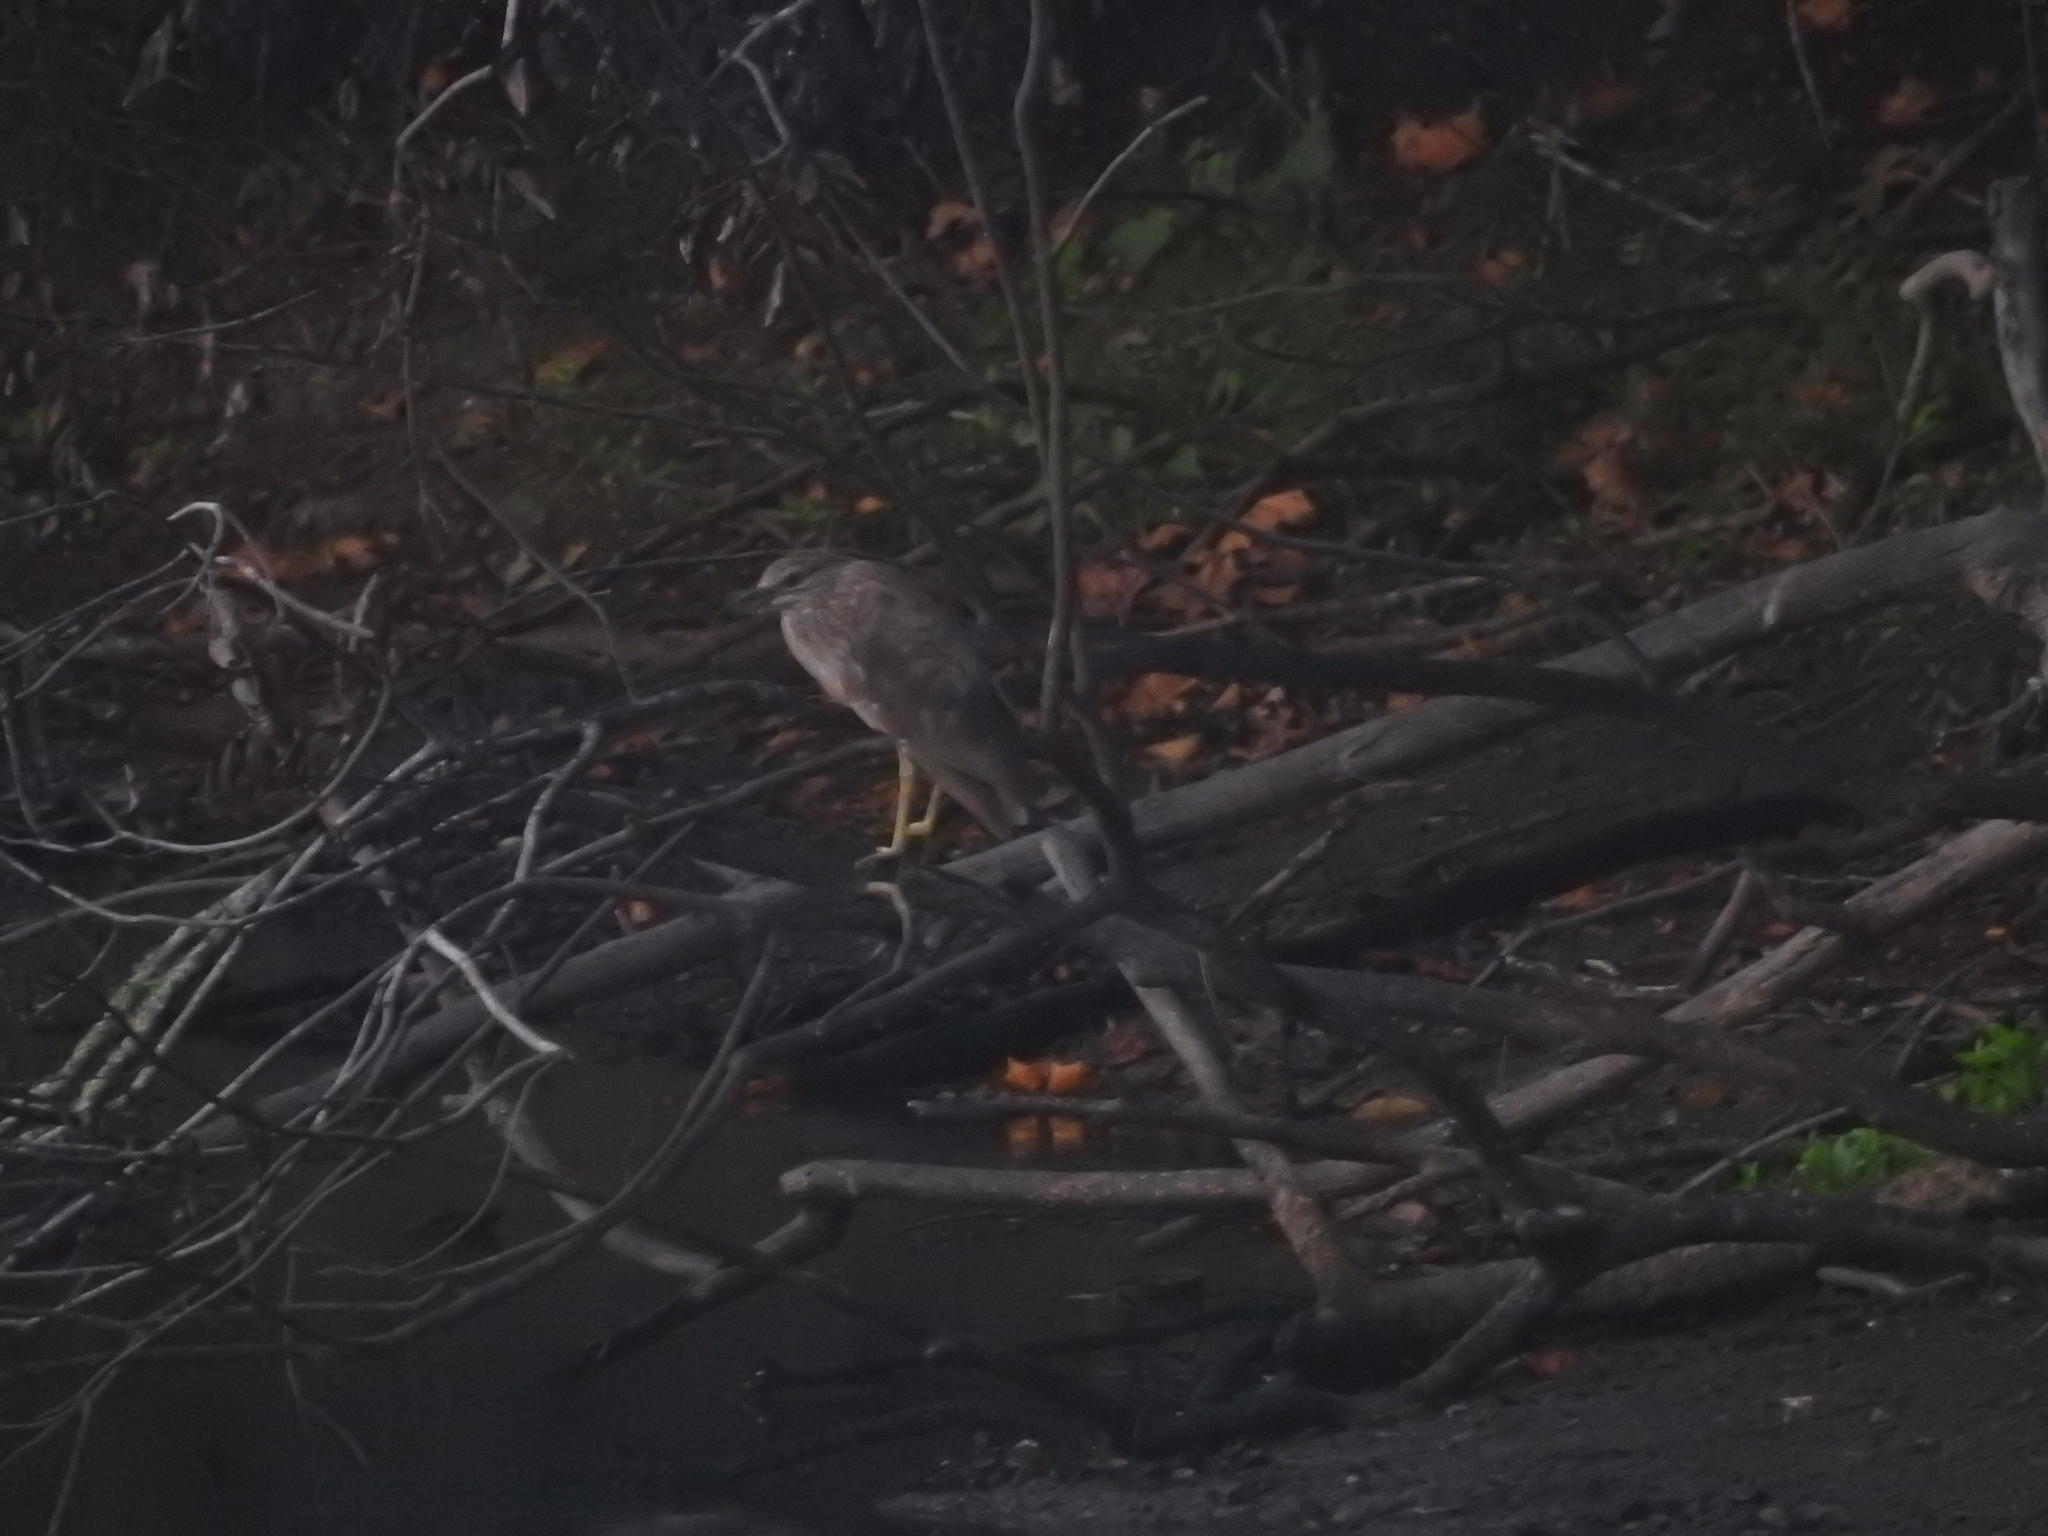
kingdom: Animalia
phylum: Chordata
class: Aves
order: Pelecaniformes
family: Ardeidae
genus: Nycticorax
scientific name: Nycticorax nycticorax
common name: Black-crowned night heron
